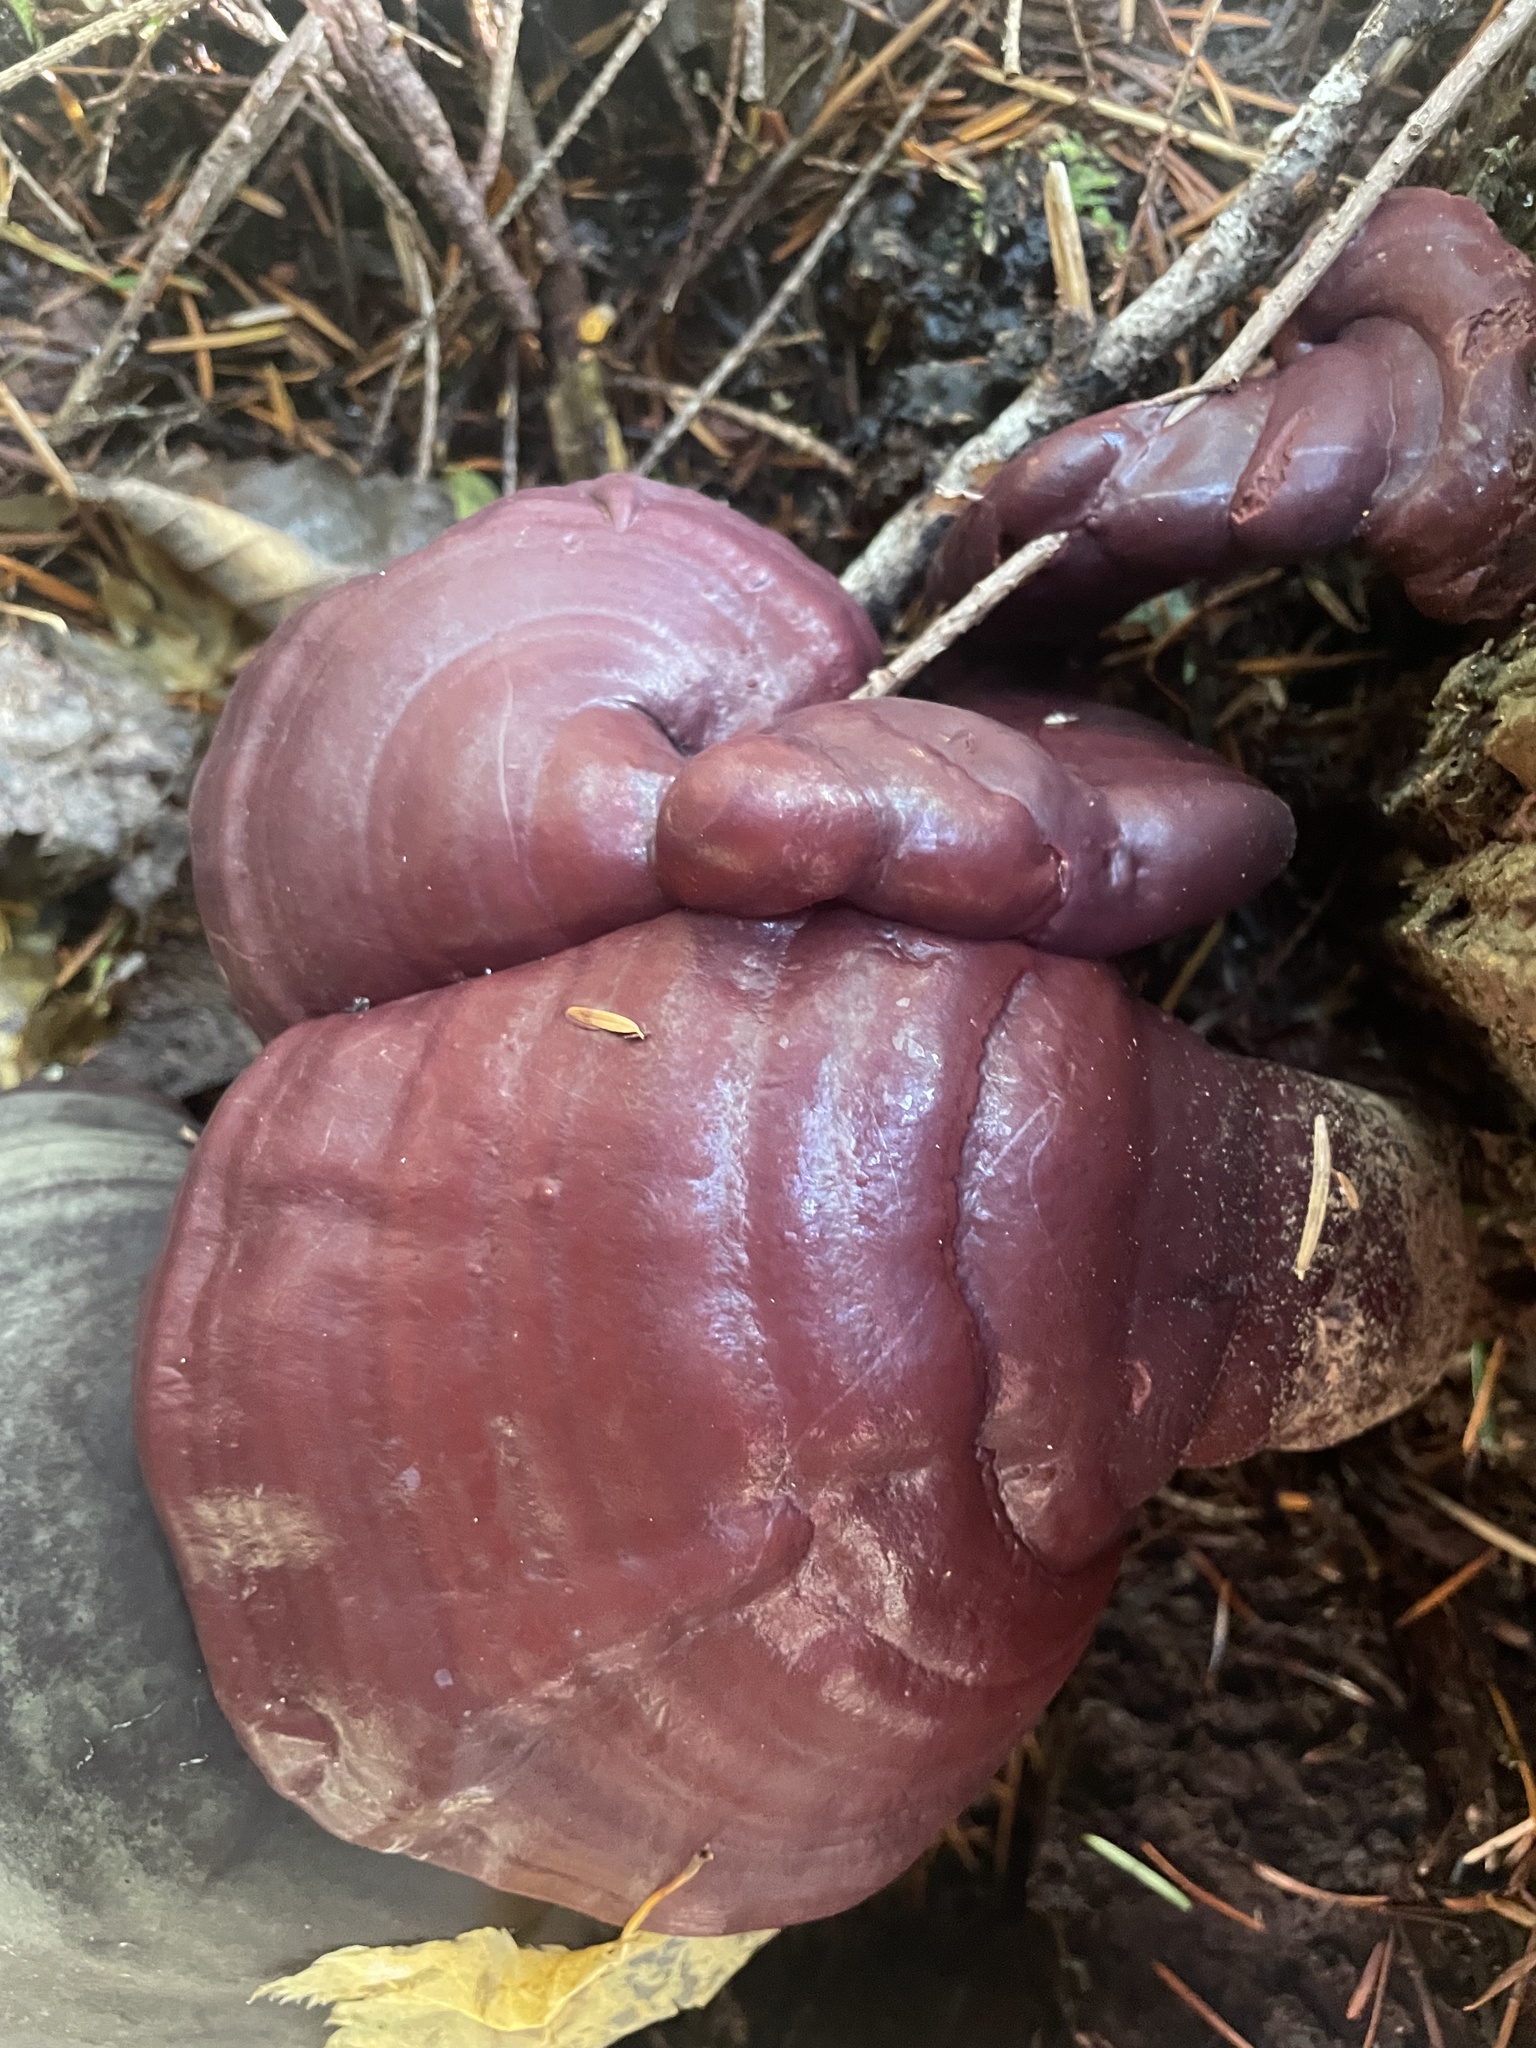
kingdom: Fungi
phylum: Basidiomycota
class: Agaricomycetes
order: Polyporales
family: Polyporaceae
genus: Ganoderma
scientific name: Ganoderma oregonense
